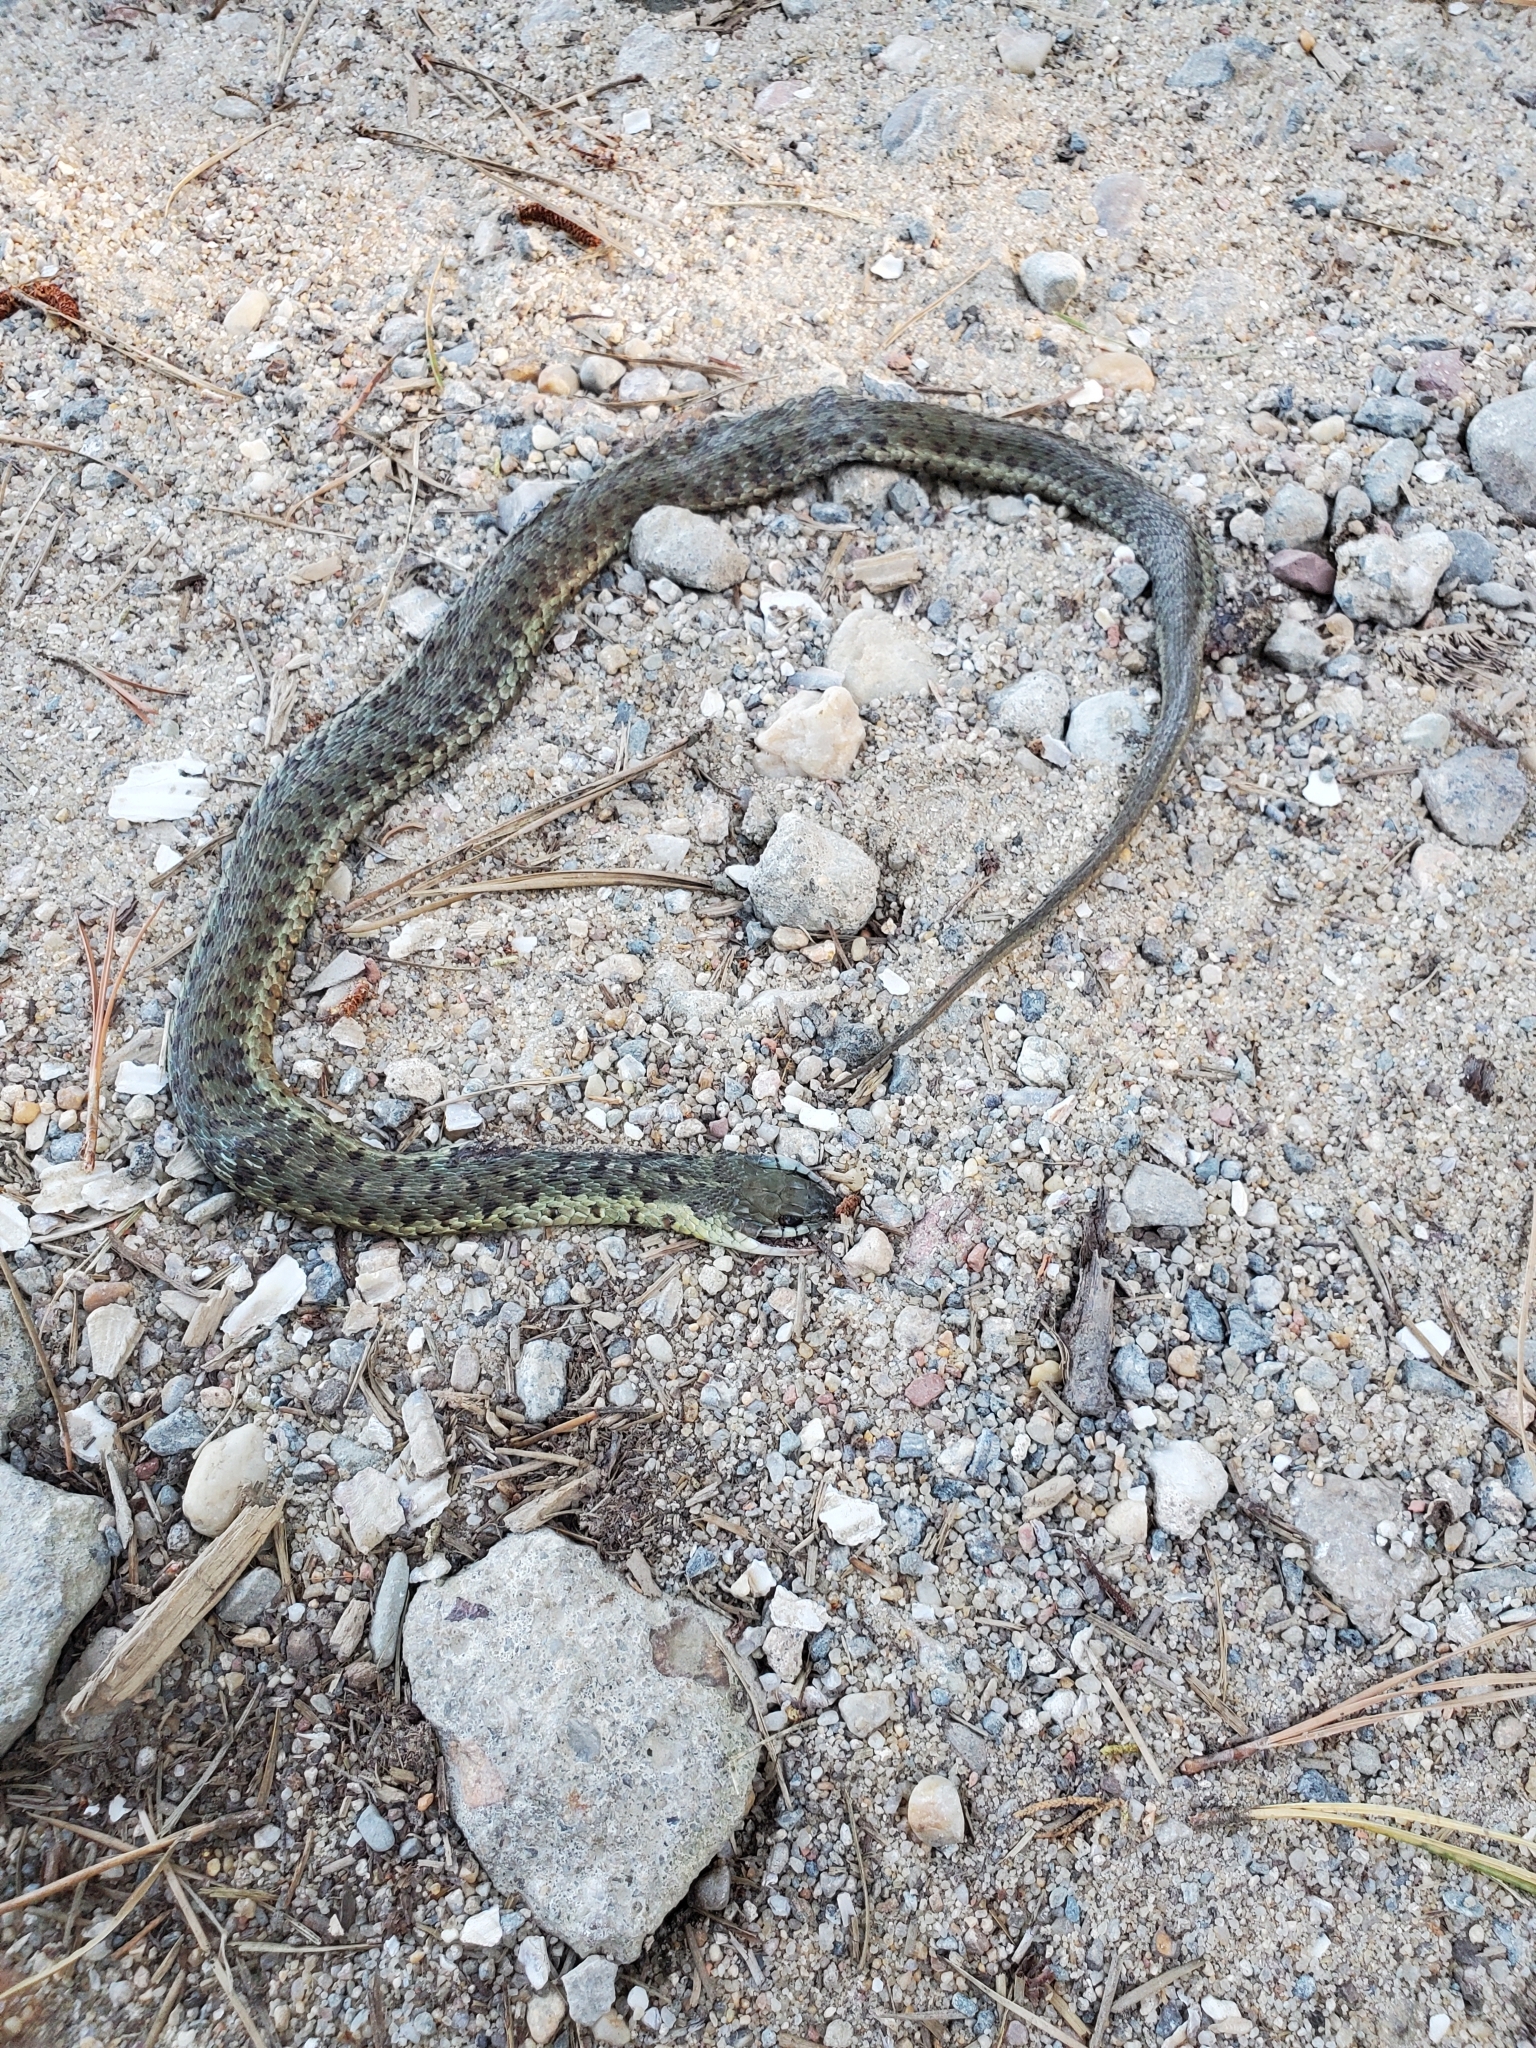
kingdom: Animalia
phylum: Chordata
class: Squamata
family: Colubridae
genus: Thamnophis
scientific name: Thamnophis sirtalis
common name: Common garter snake
